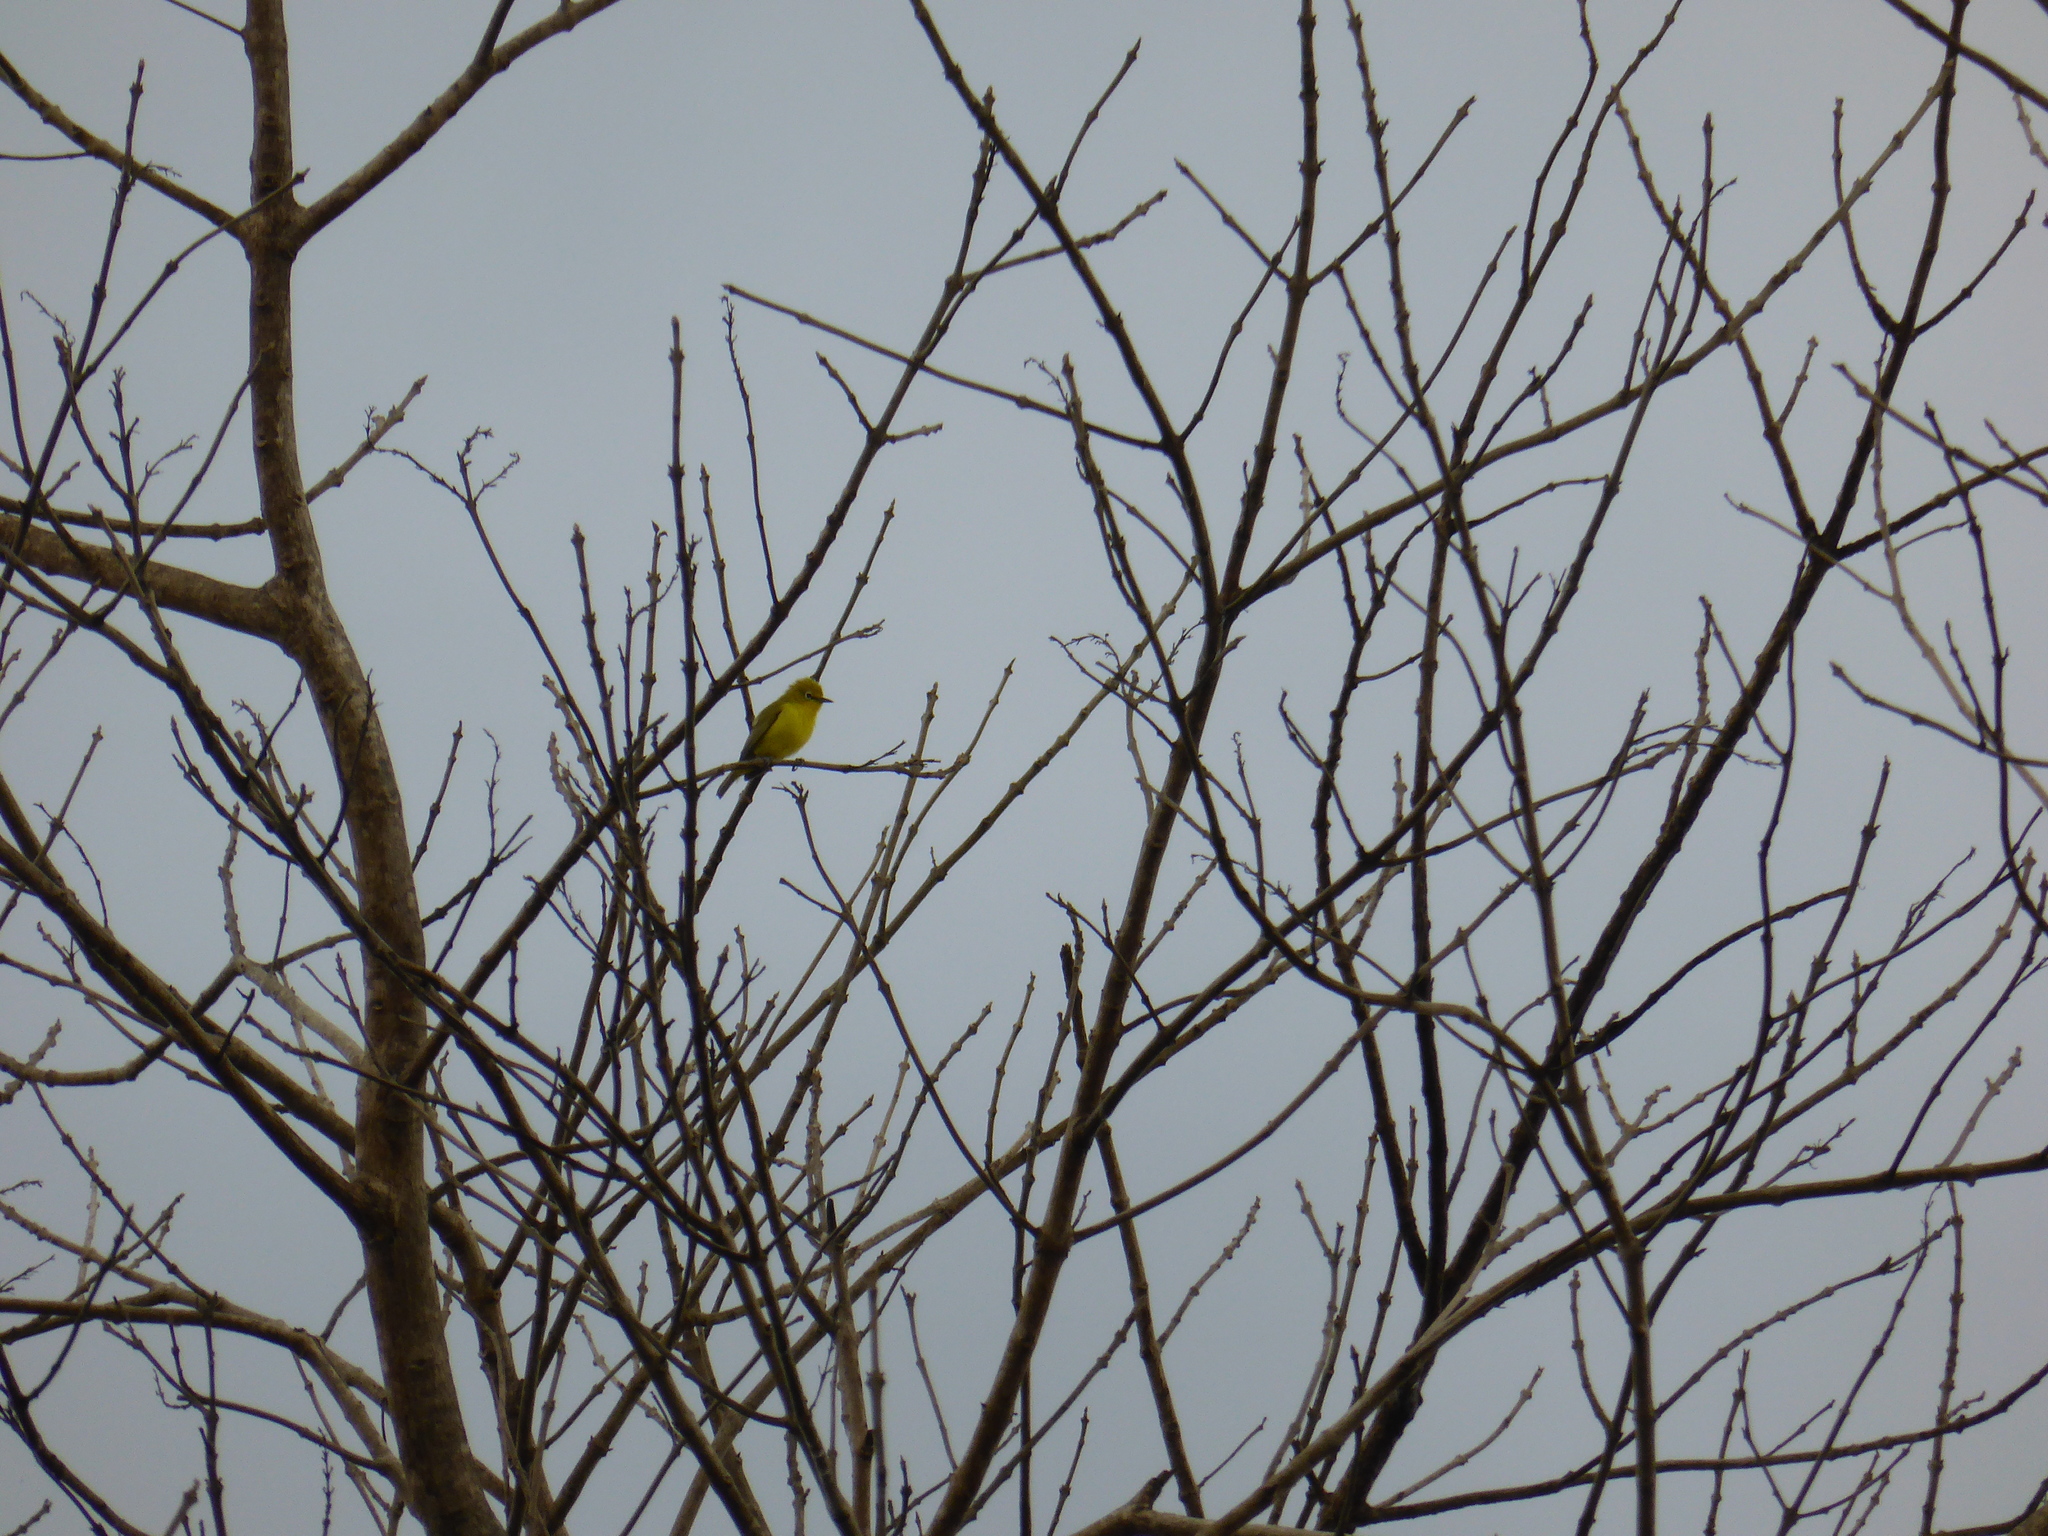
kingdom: Animalia
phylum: Chordata
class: Aves
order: Passeriformes
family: Zosteropidae
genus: Zosterops
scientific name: Zosterops senegalensis
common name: African yellow white-eye
